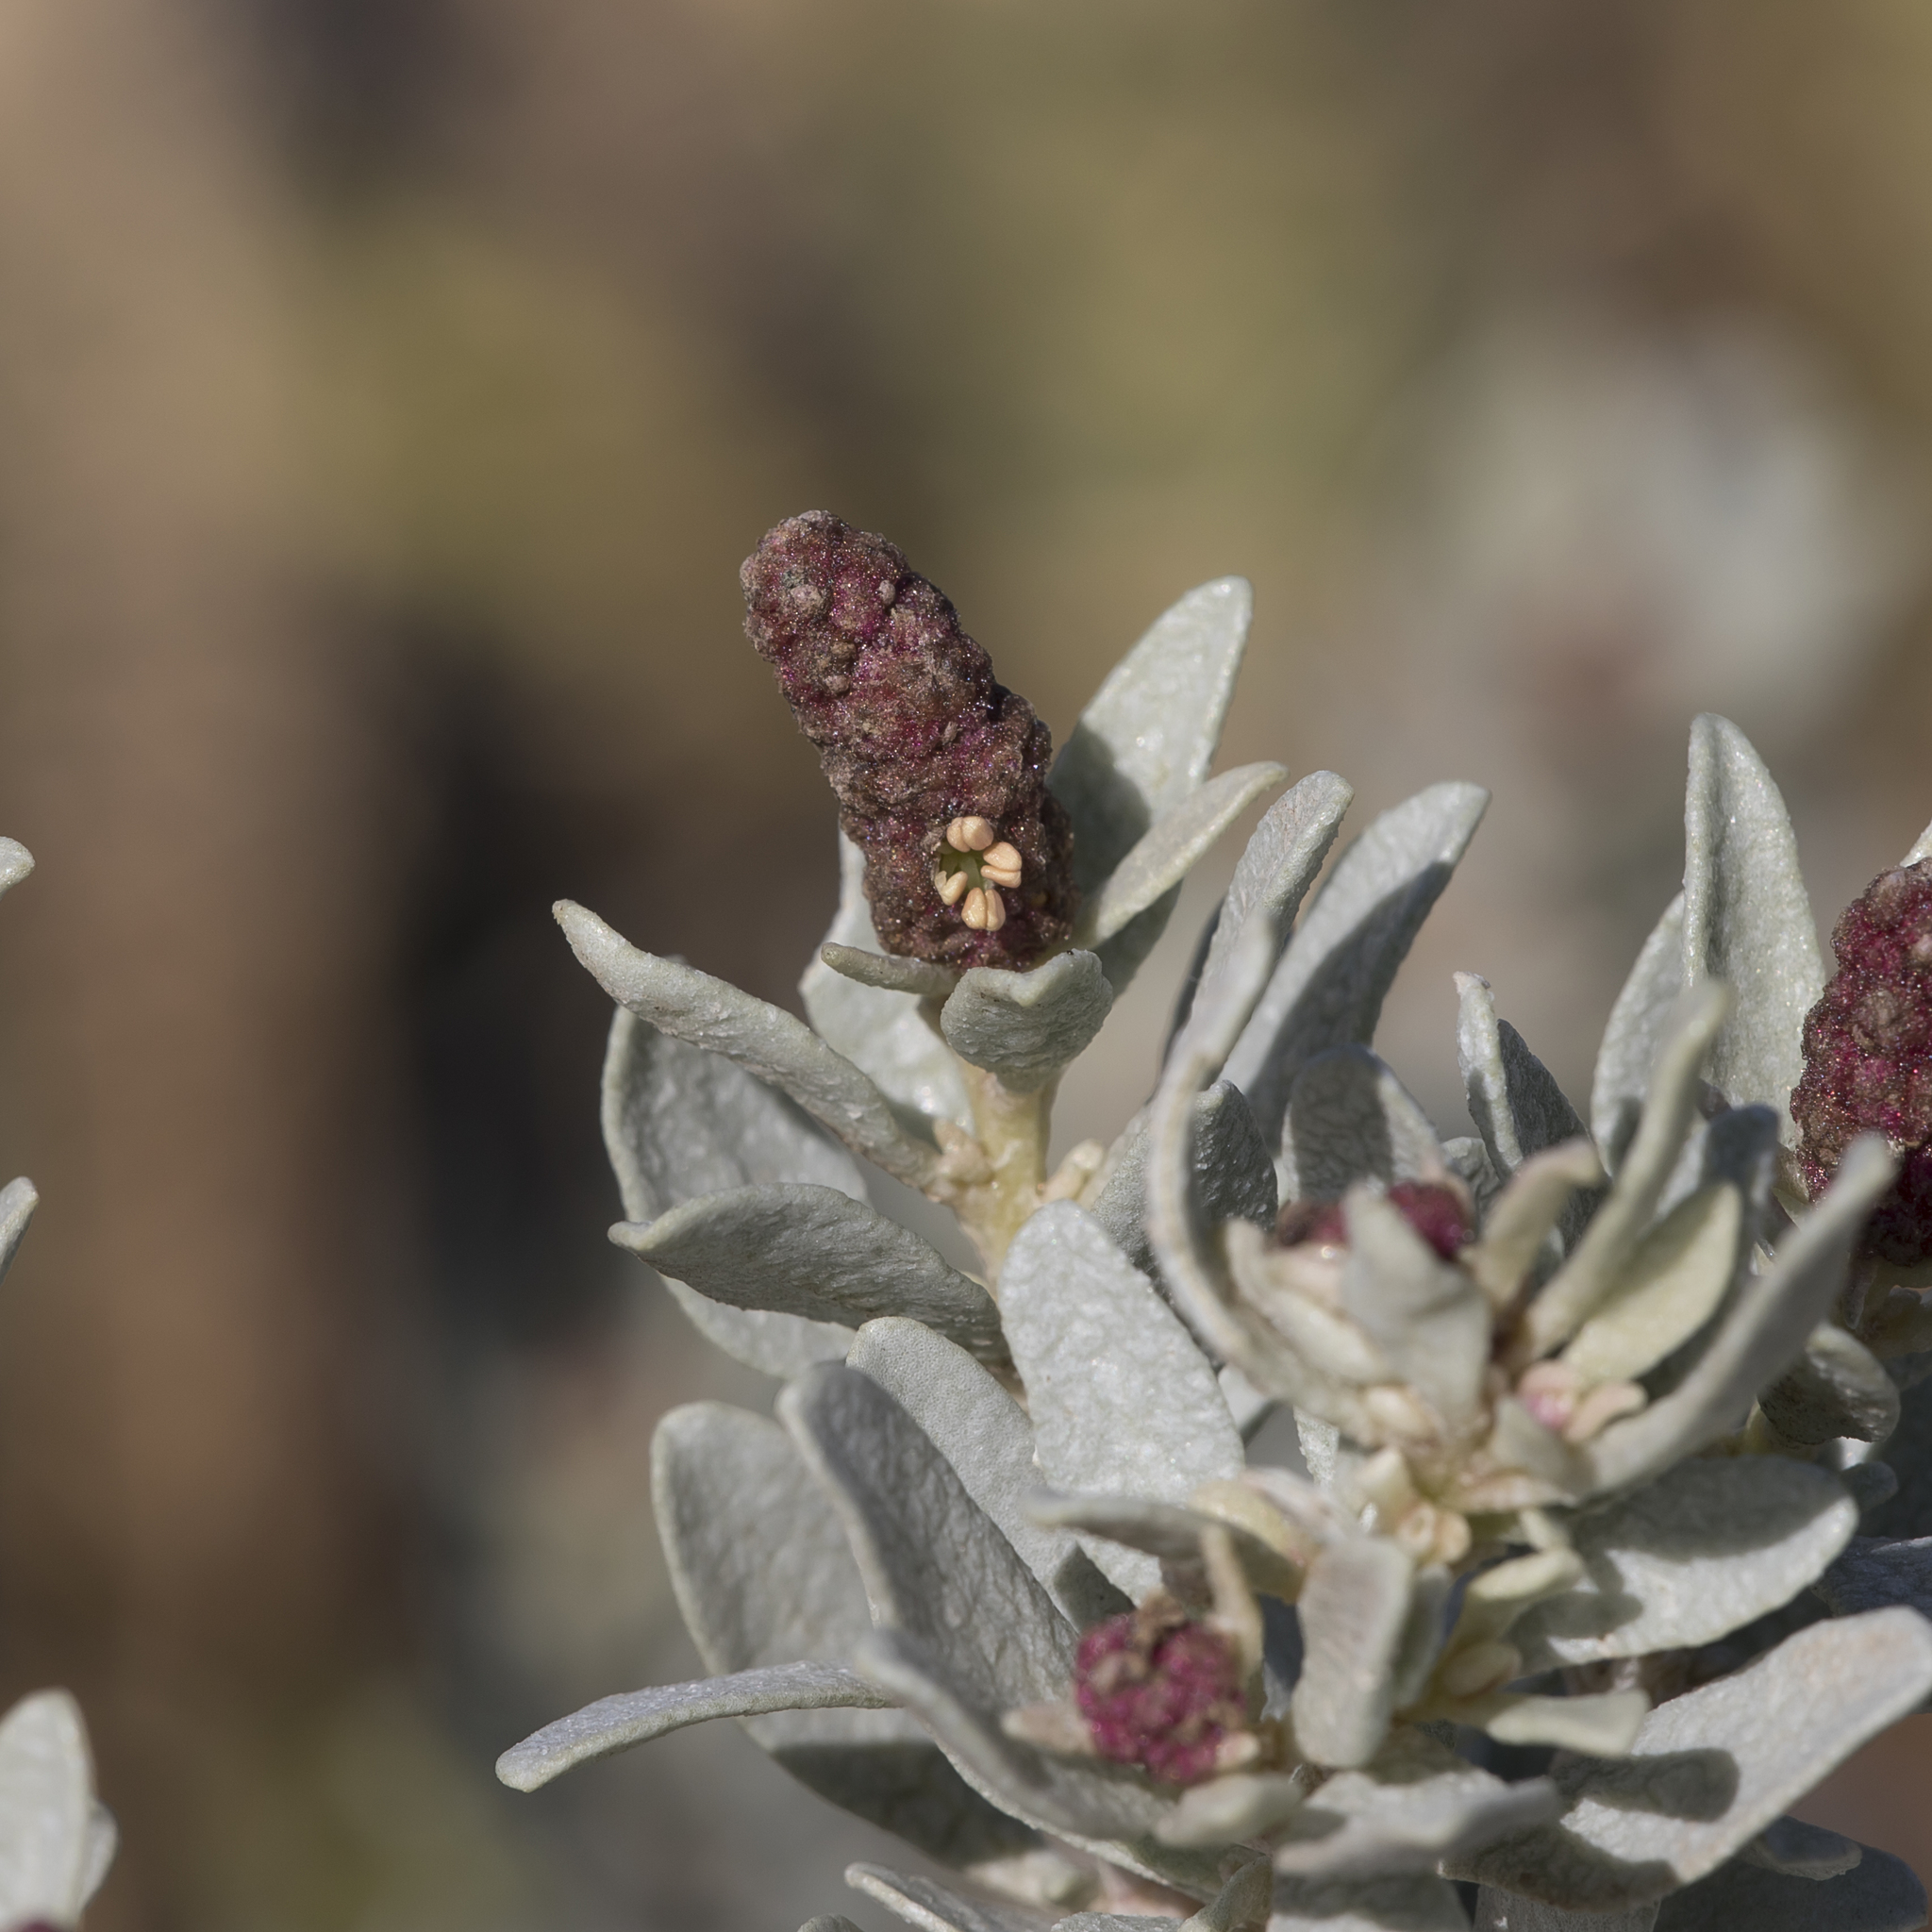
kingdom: Plantae
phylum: Tracheophyta
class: Magnoliopsida
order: Caryophyllales
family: Amaranthaceae
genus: Atriplex
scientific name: Atriplex cinerea
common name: Grey saltbush
